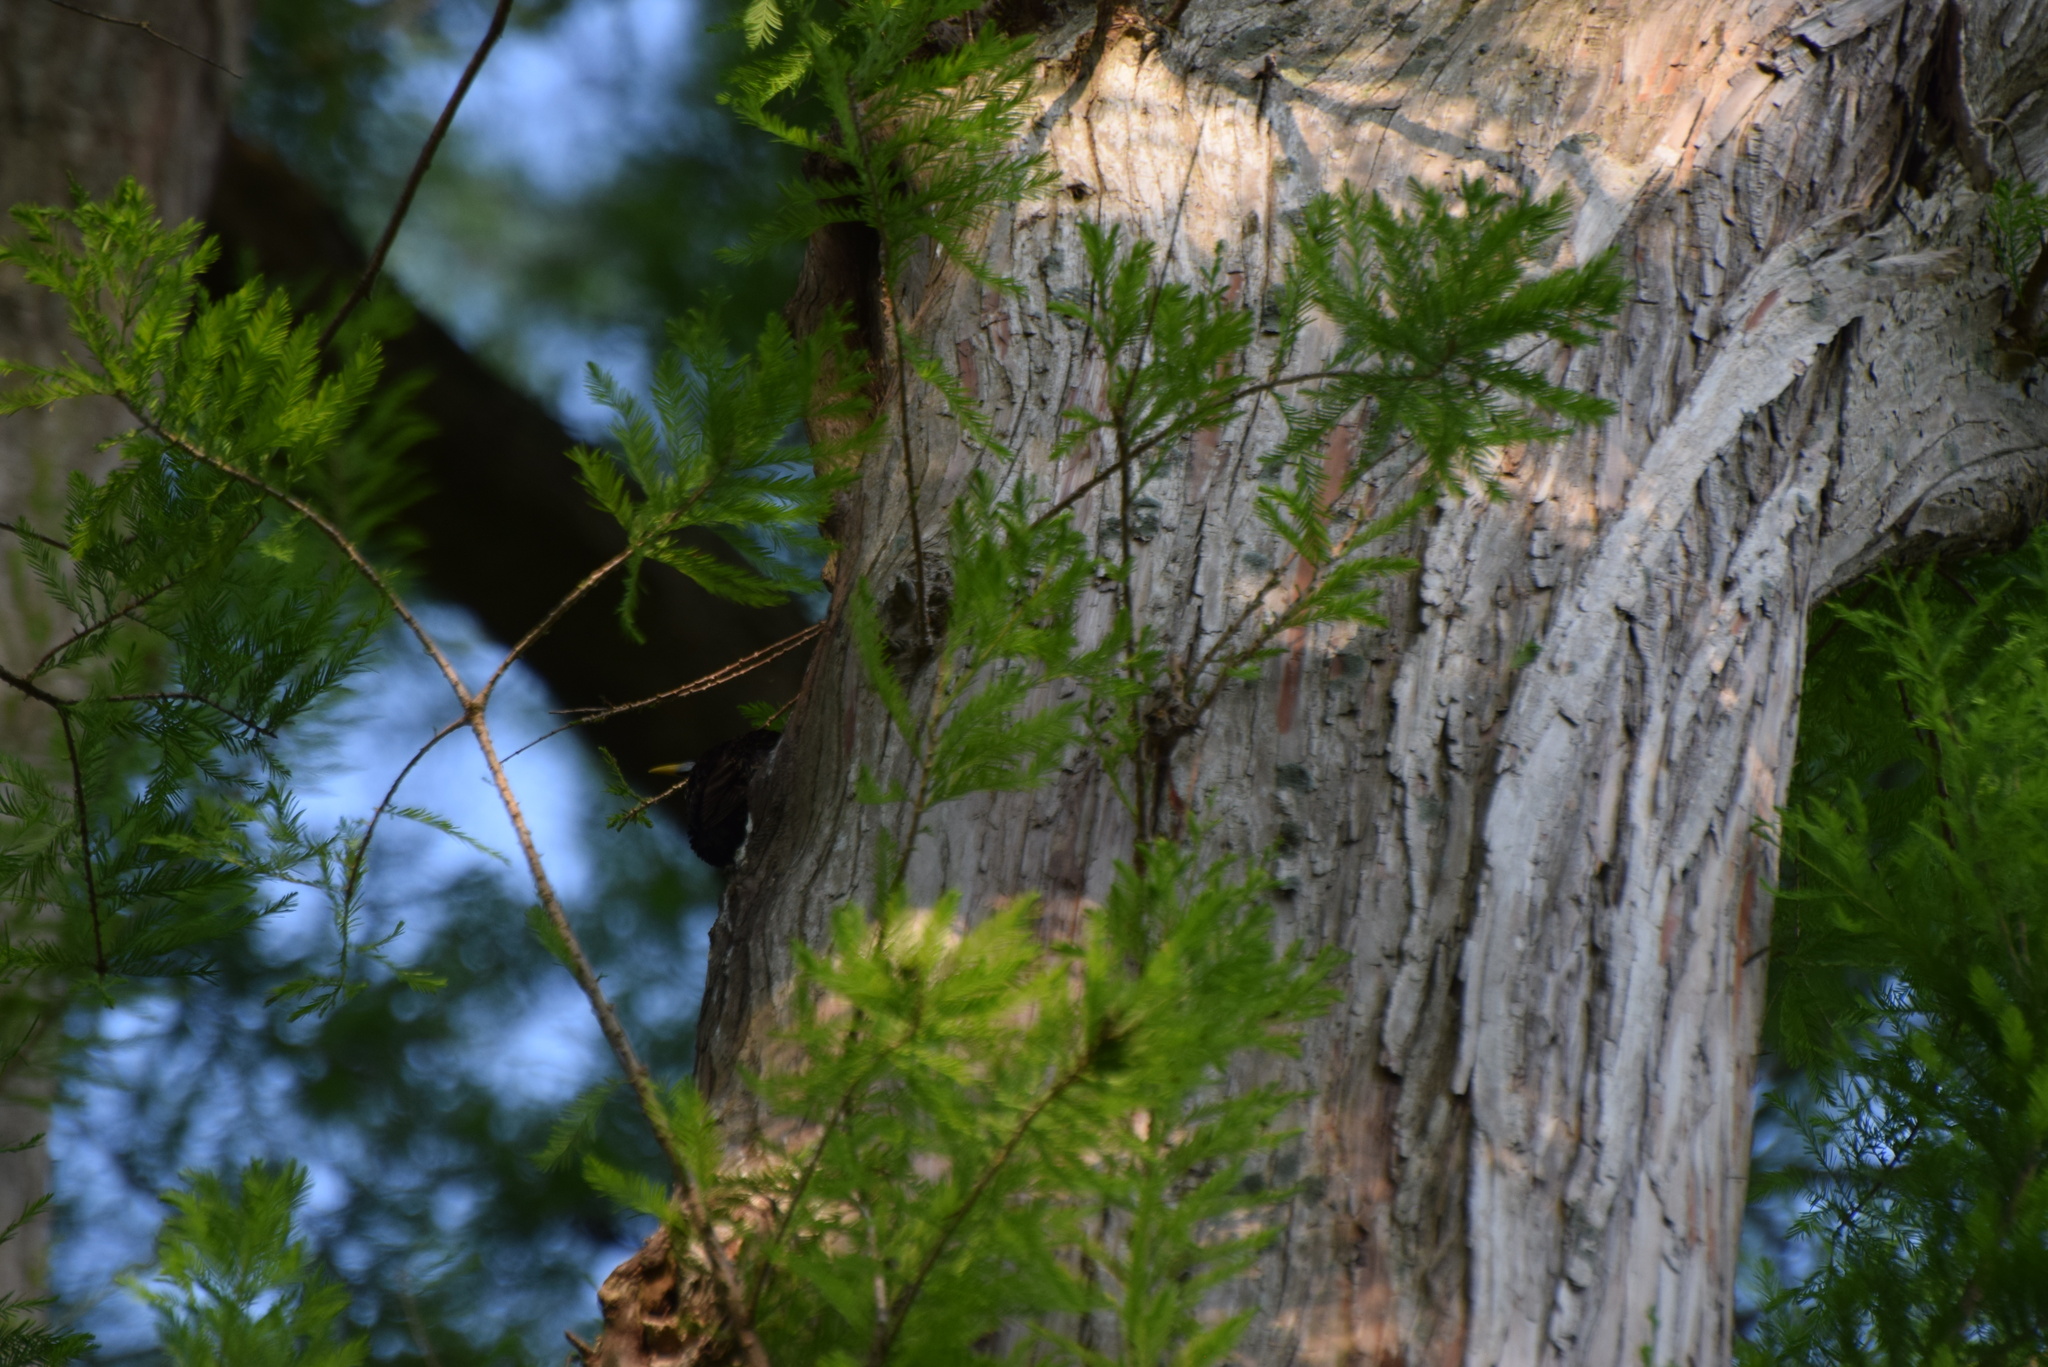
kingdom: Animalia
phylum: Chordata
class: Aves
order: Passeriformes
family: Sturnidae
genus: Sturnus
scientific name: Sturnus vulgaris
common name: Common starling
